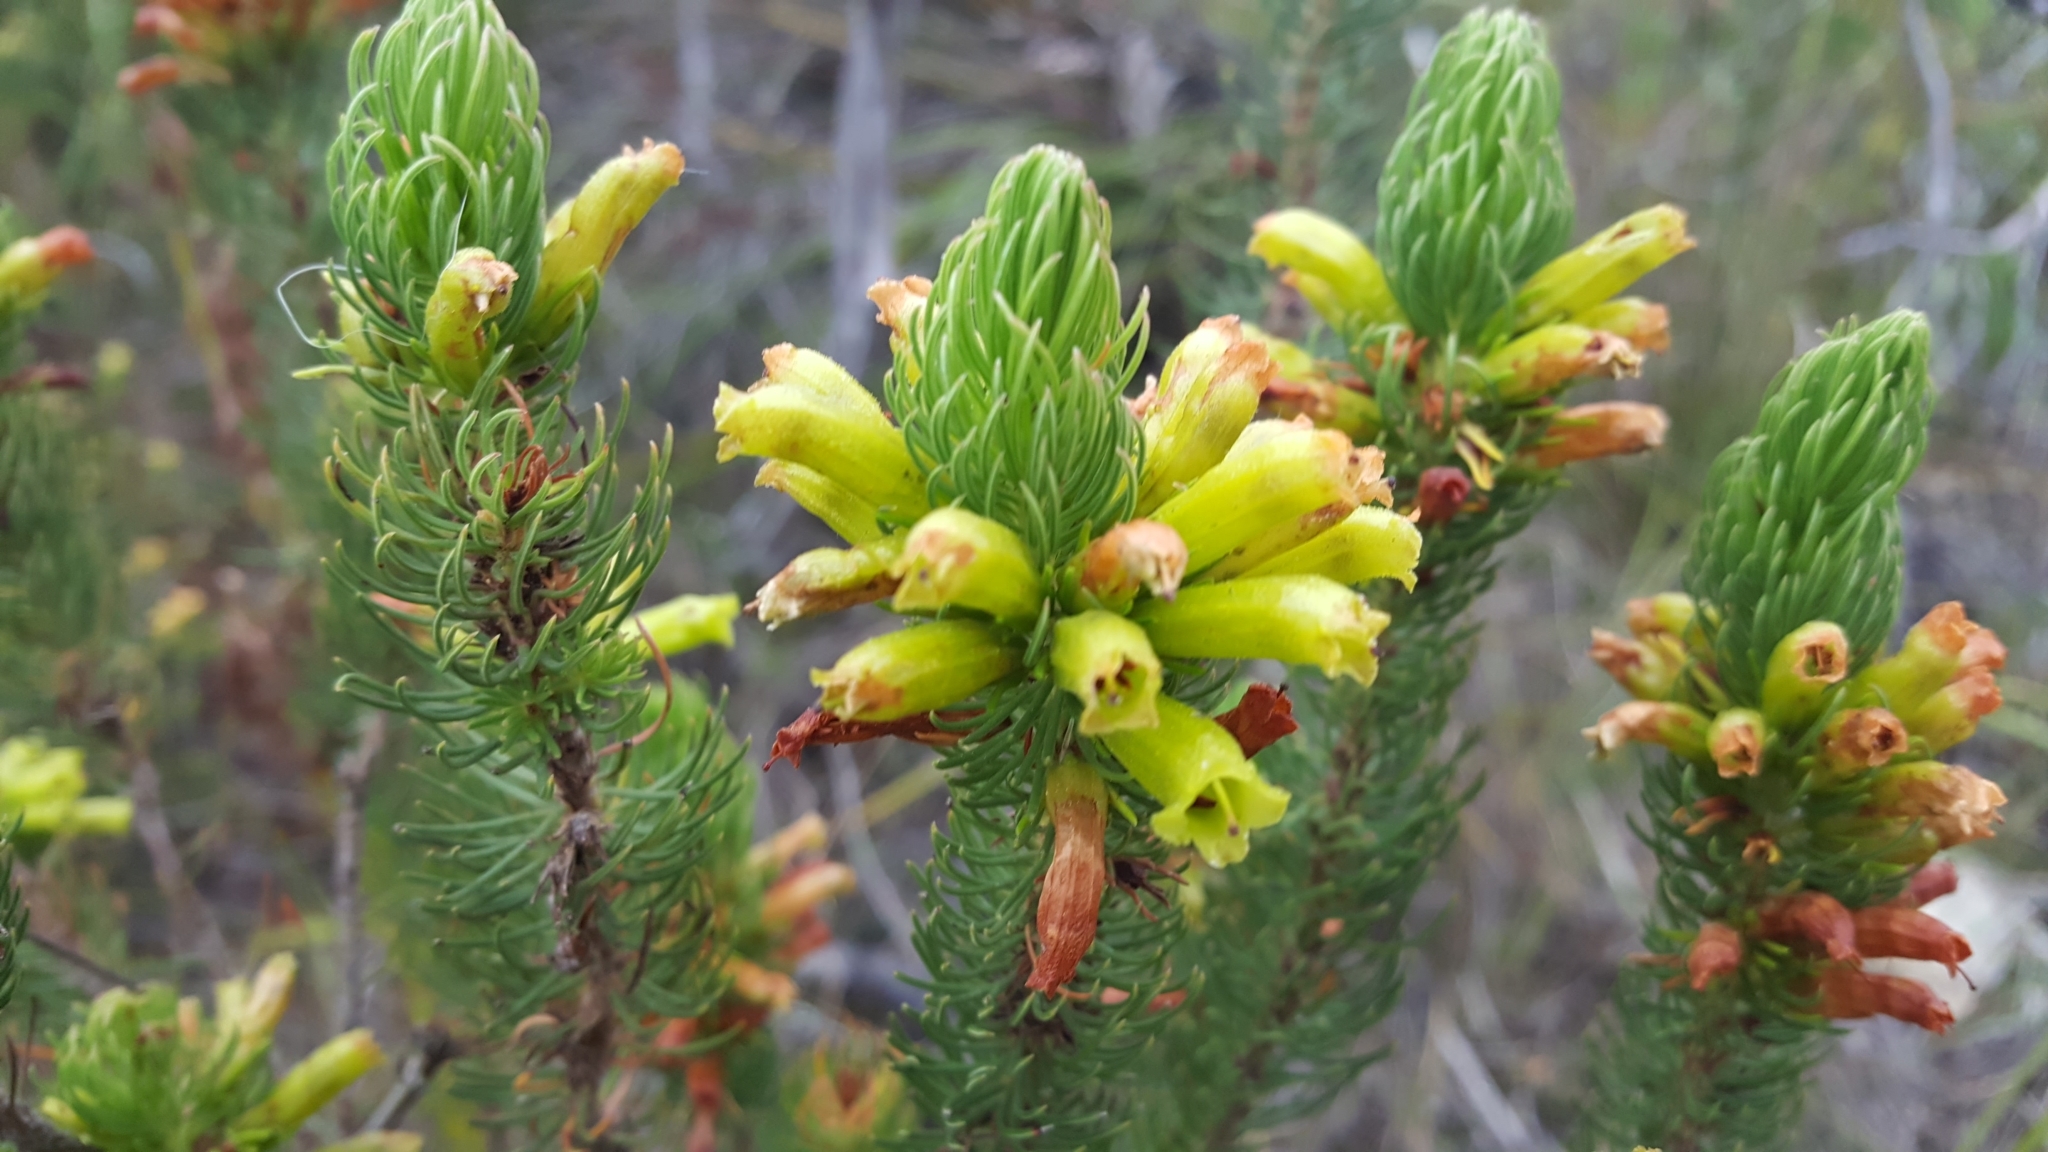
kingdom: Plantae
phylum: Tracheophyta
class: Magnoliopsida
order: Ericales
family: Ericaceae
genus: Erica
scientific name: Erica viscaria
